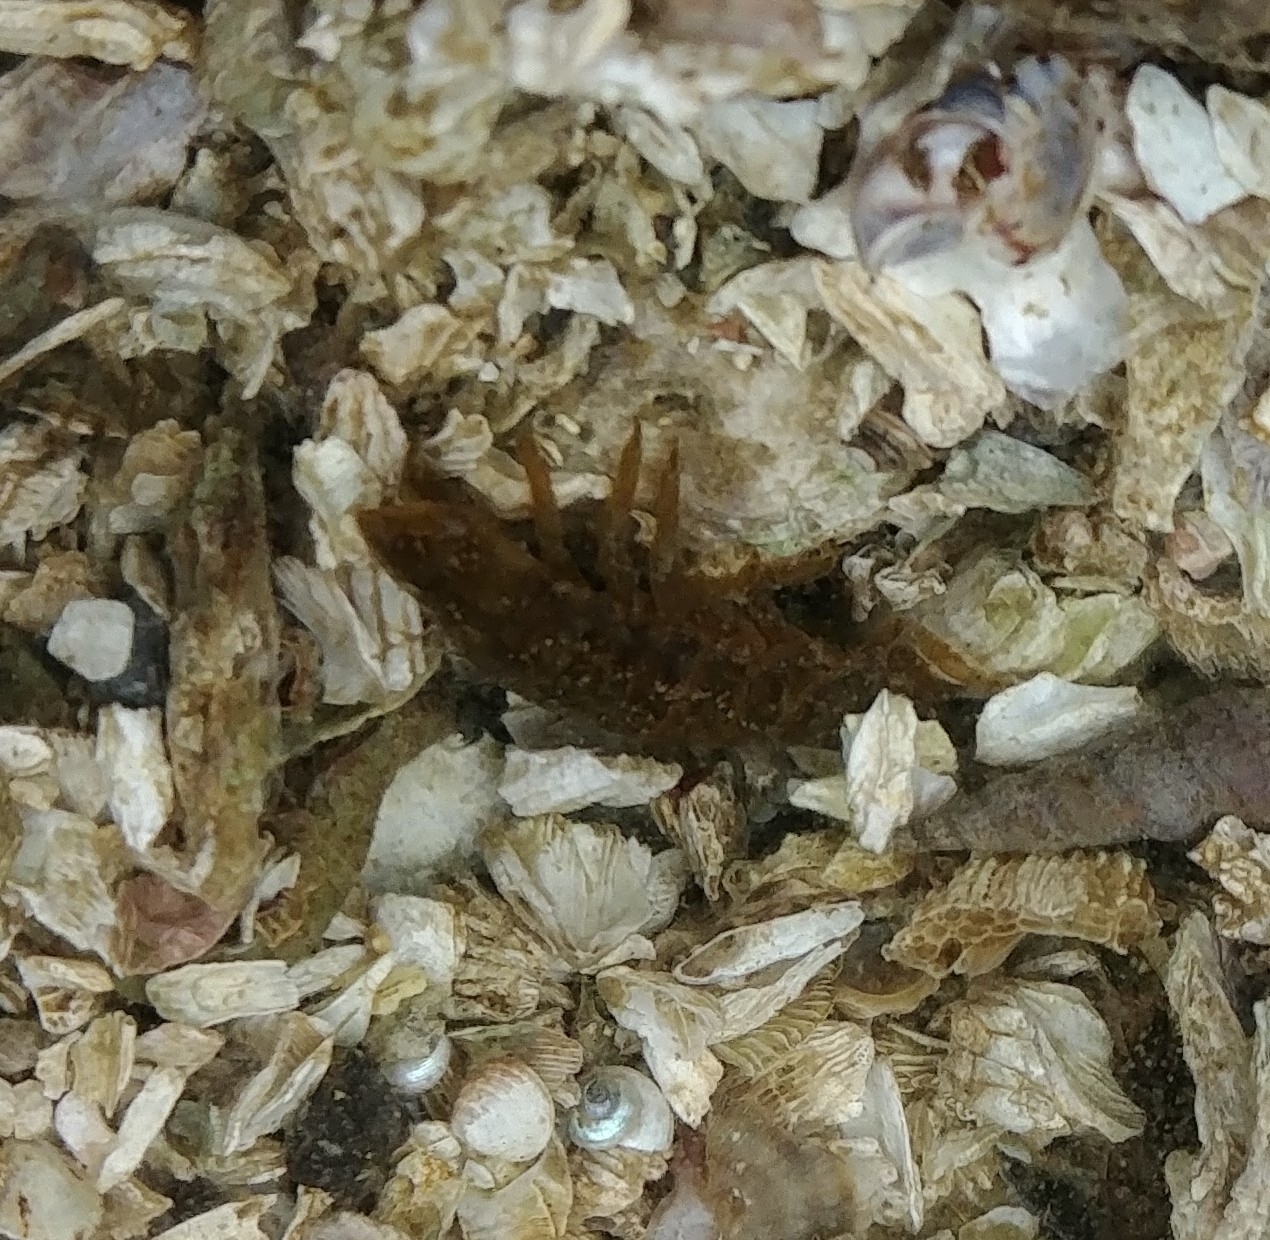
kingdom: Animalia
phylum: Arthropoda
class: Malacostraca
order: Isopoda
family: Idoteidae
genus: Pentidotea
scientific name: Pentidotea wosnesenskii
